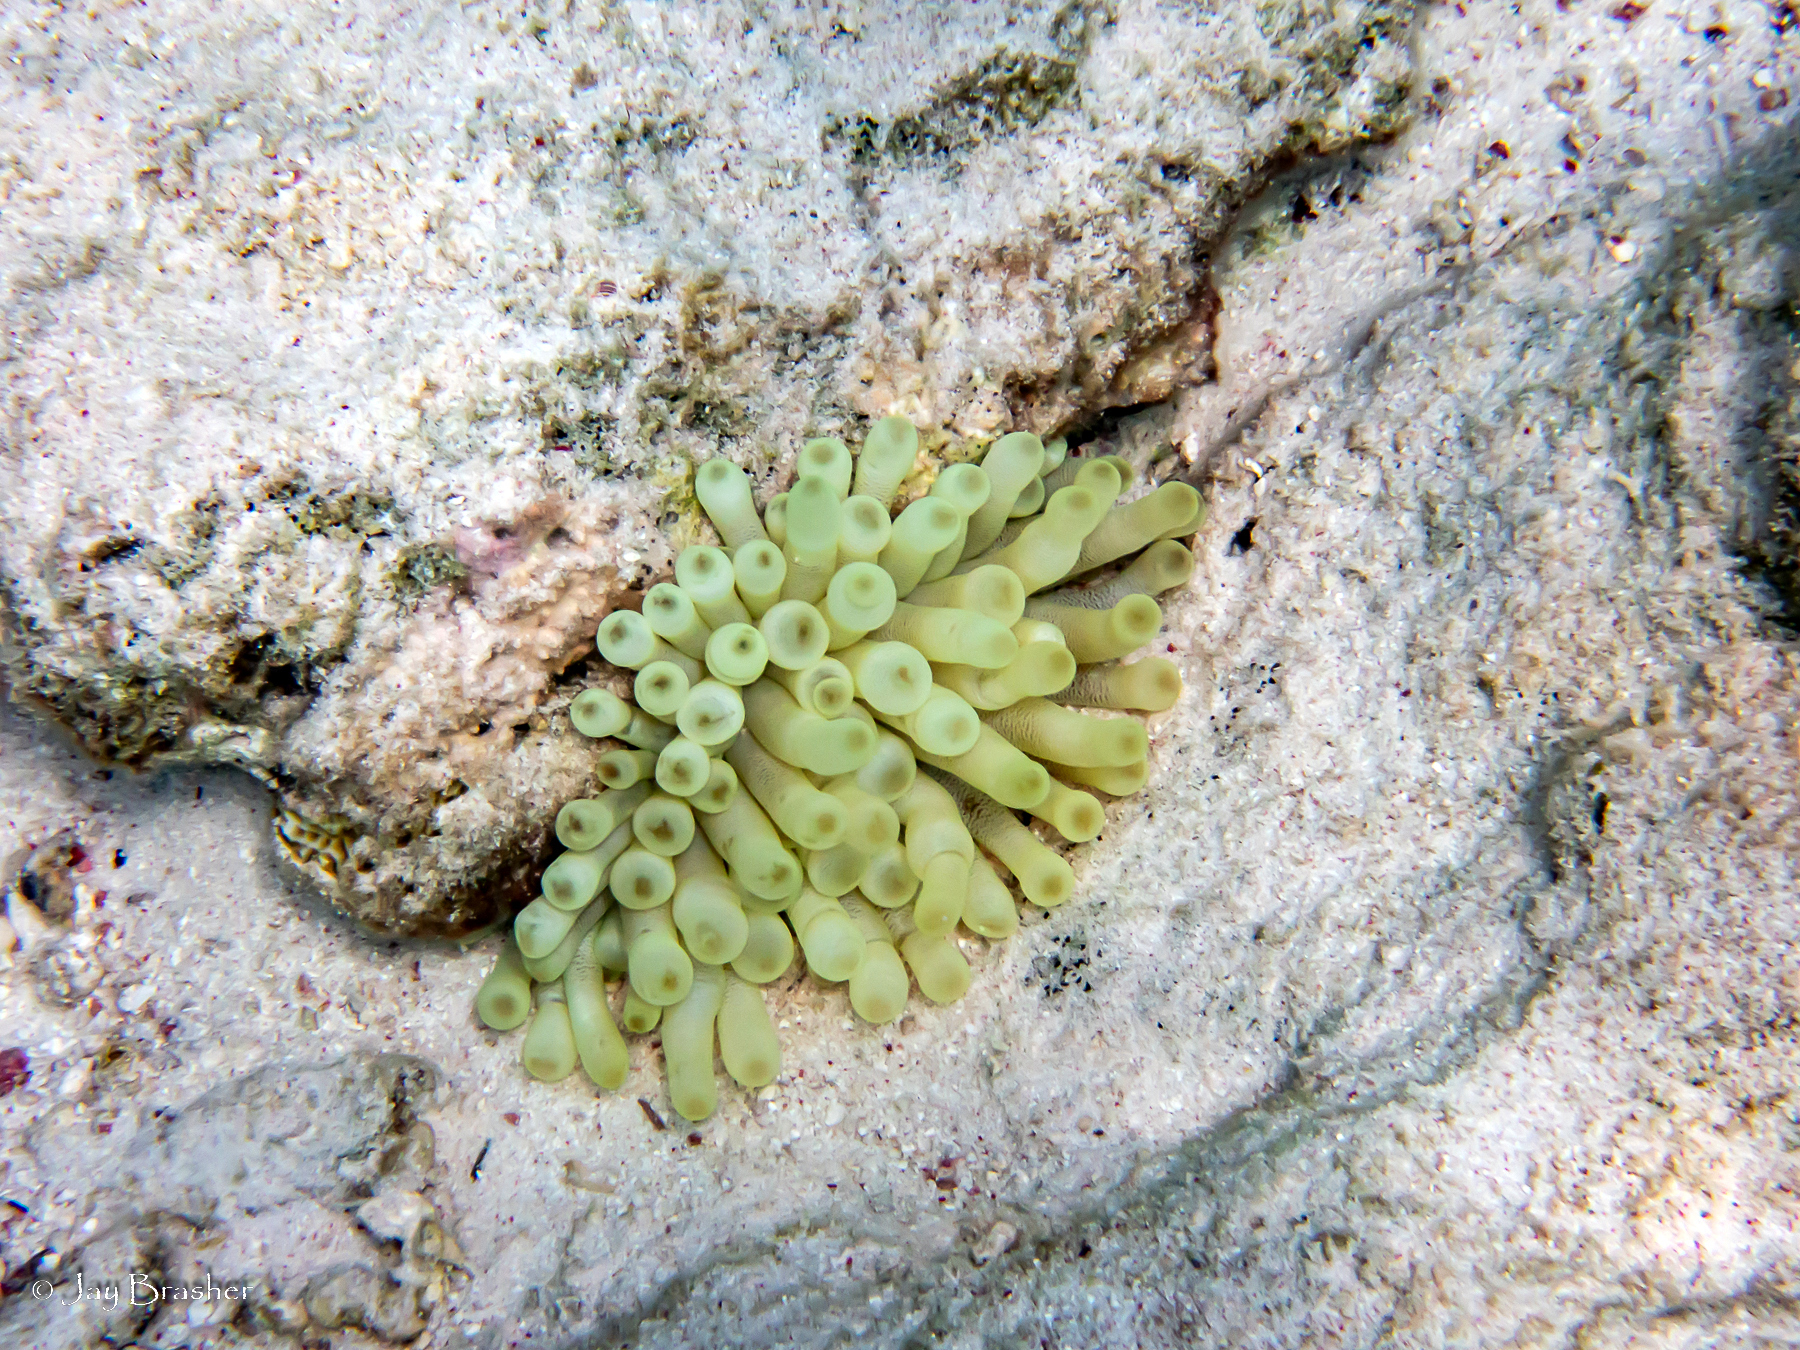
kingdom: Animalia
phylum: Cnidaria
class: Anthozoa
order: Actiniaria
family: Actiniidae
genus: Condylactis
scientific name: Condylactis gigantea
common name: Giant caribbean anemone
